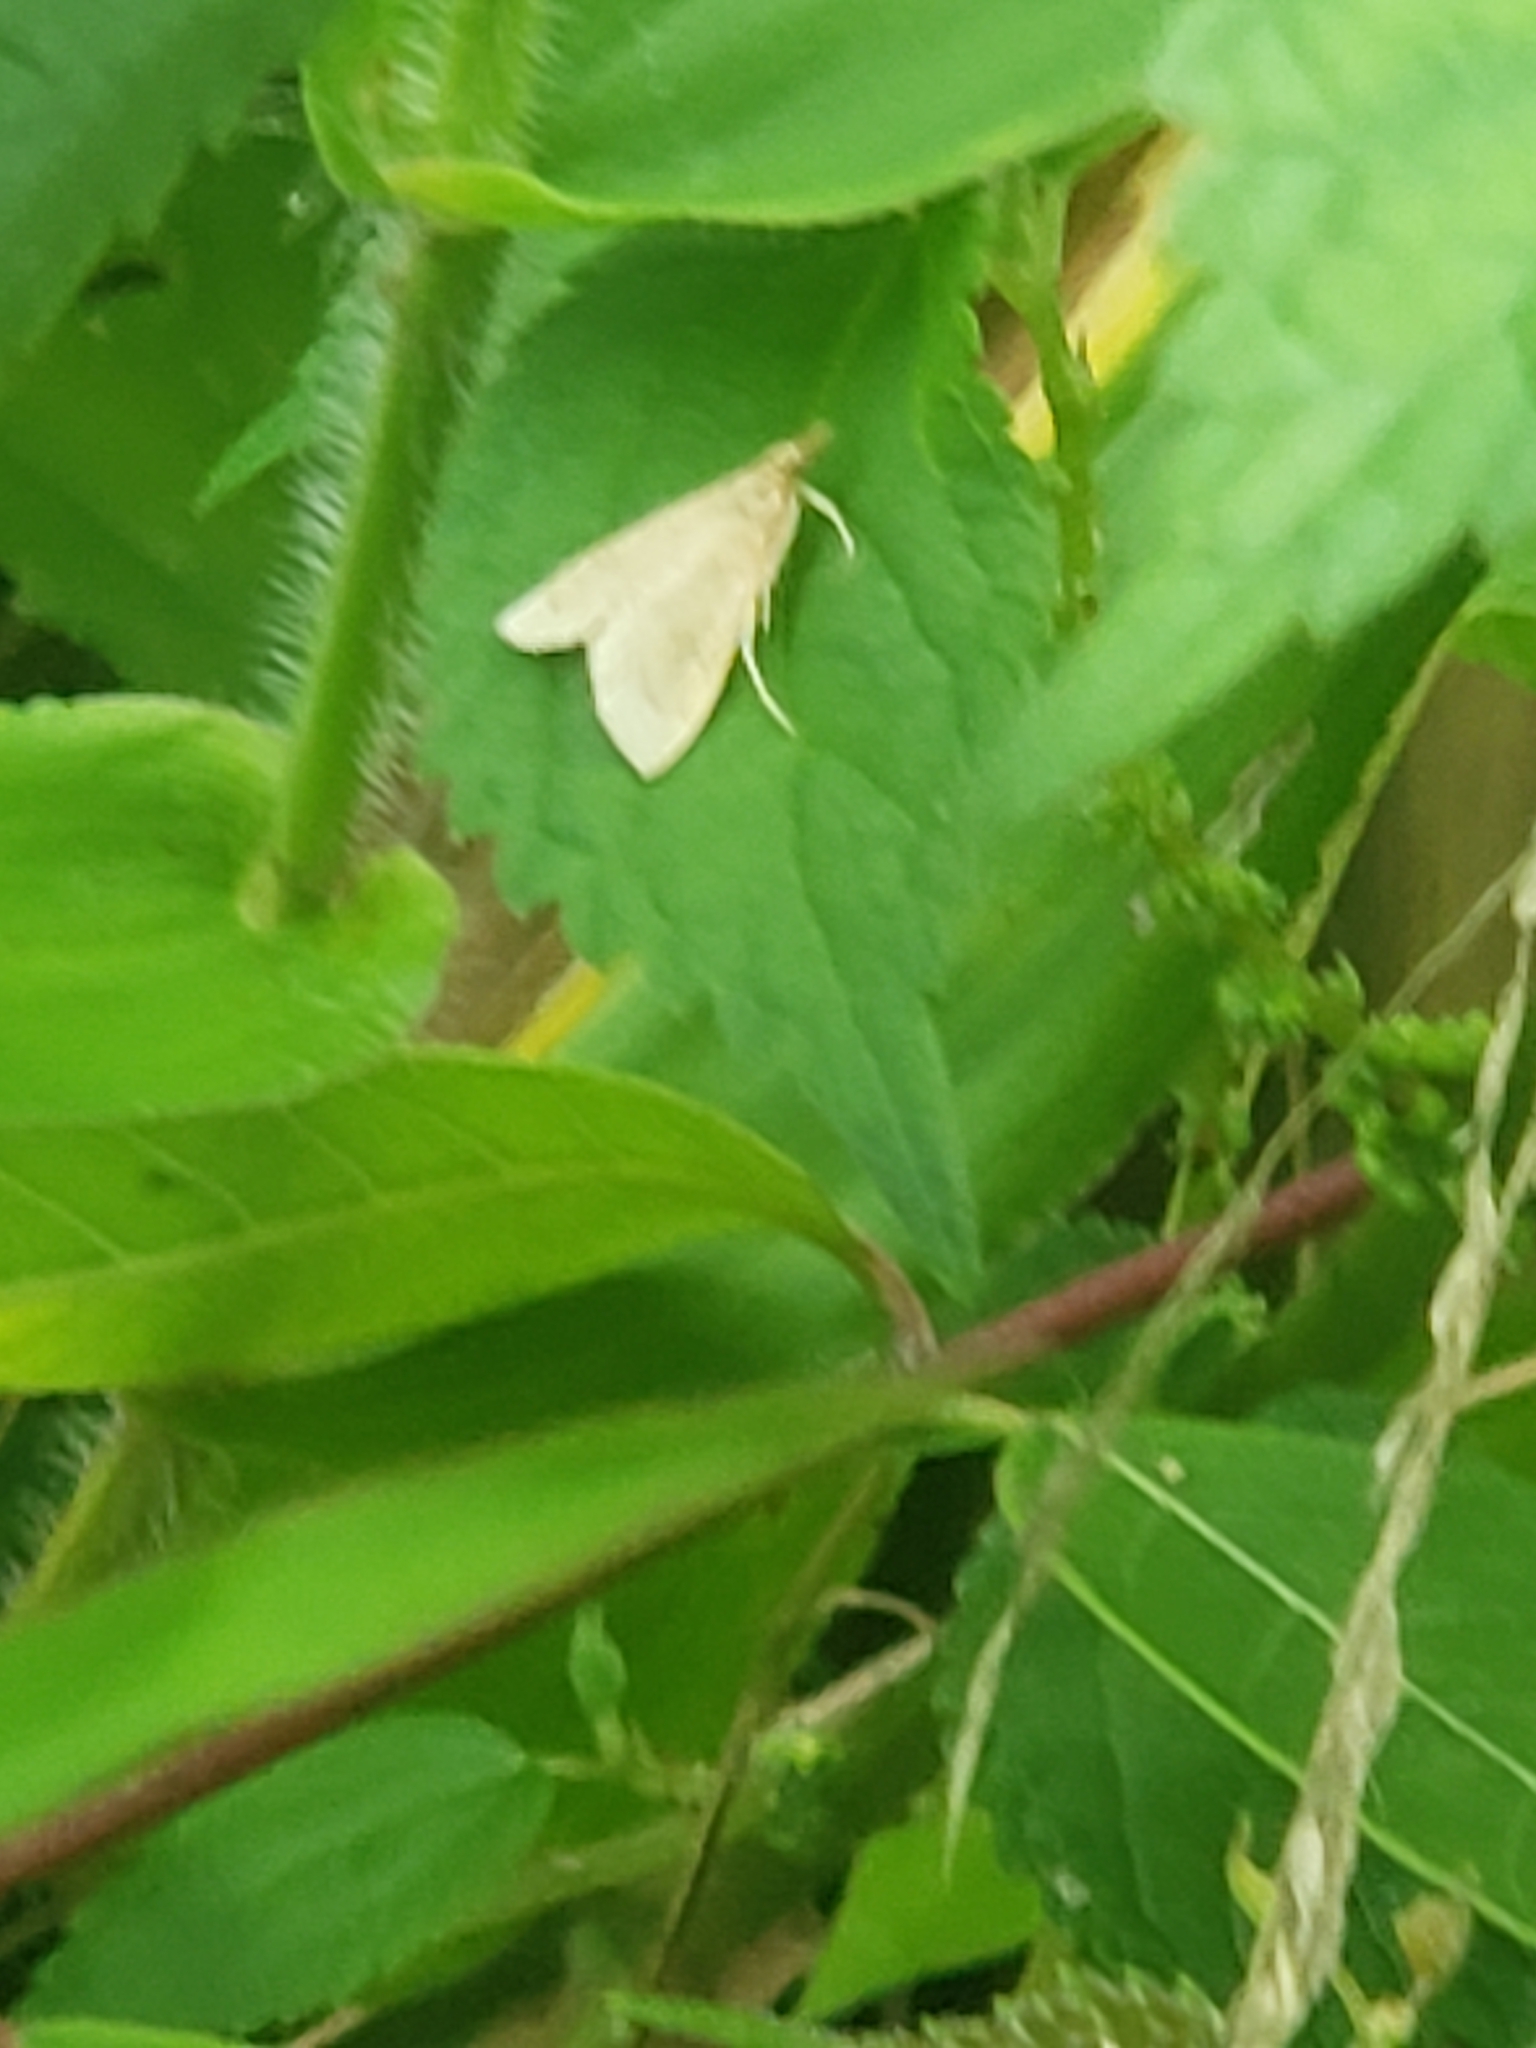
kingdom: Animalia
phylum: Arthropoda
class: Insecta
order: Lepidoptera
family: Crambidae
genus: Udea
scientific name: Udea rubigalis
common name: Celery leaftier moth
